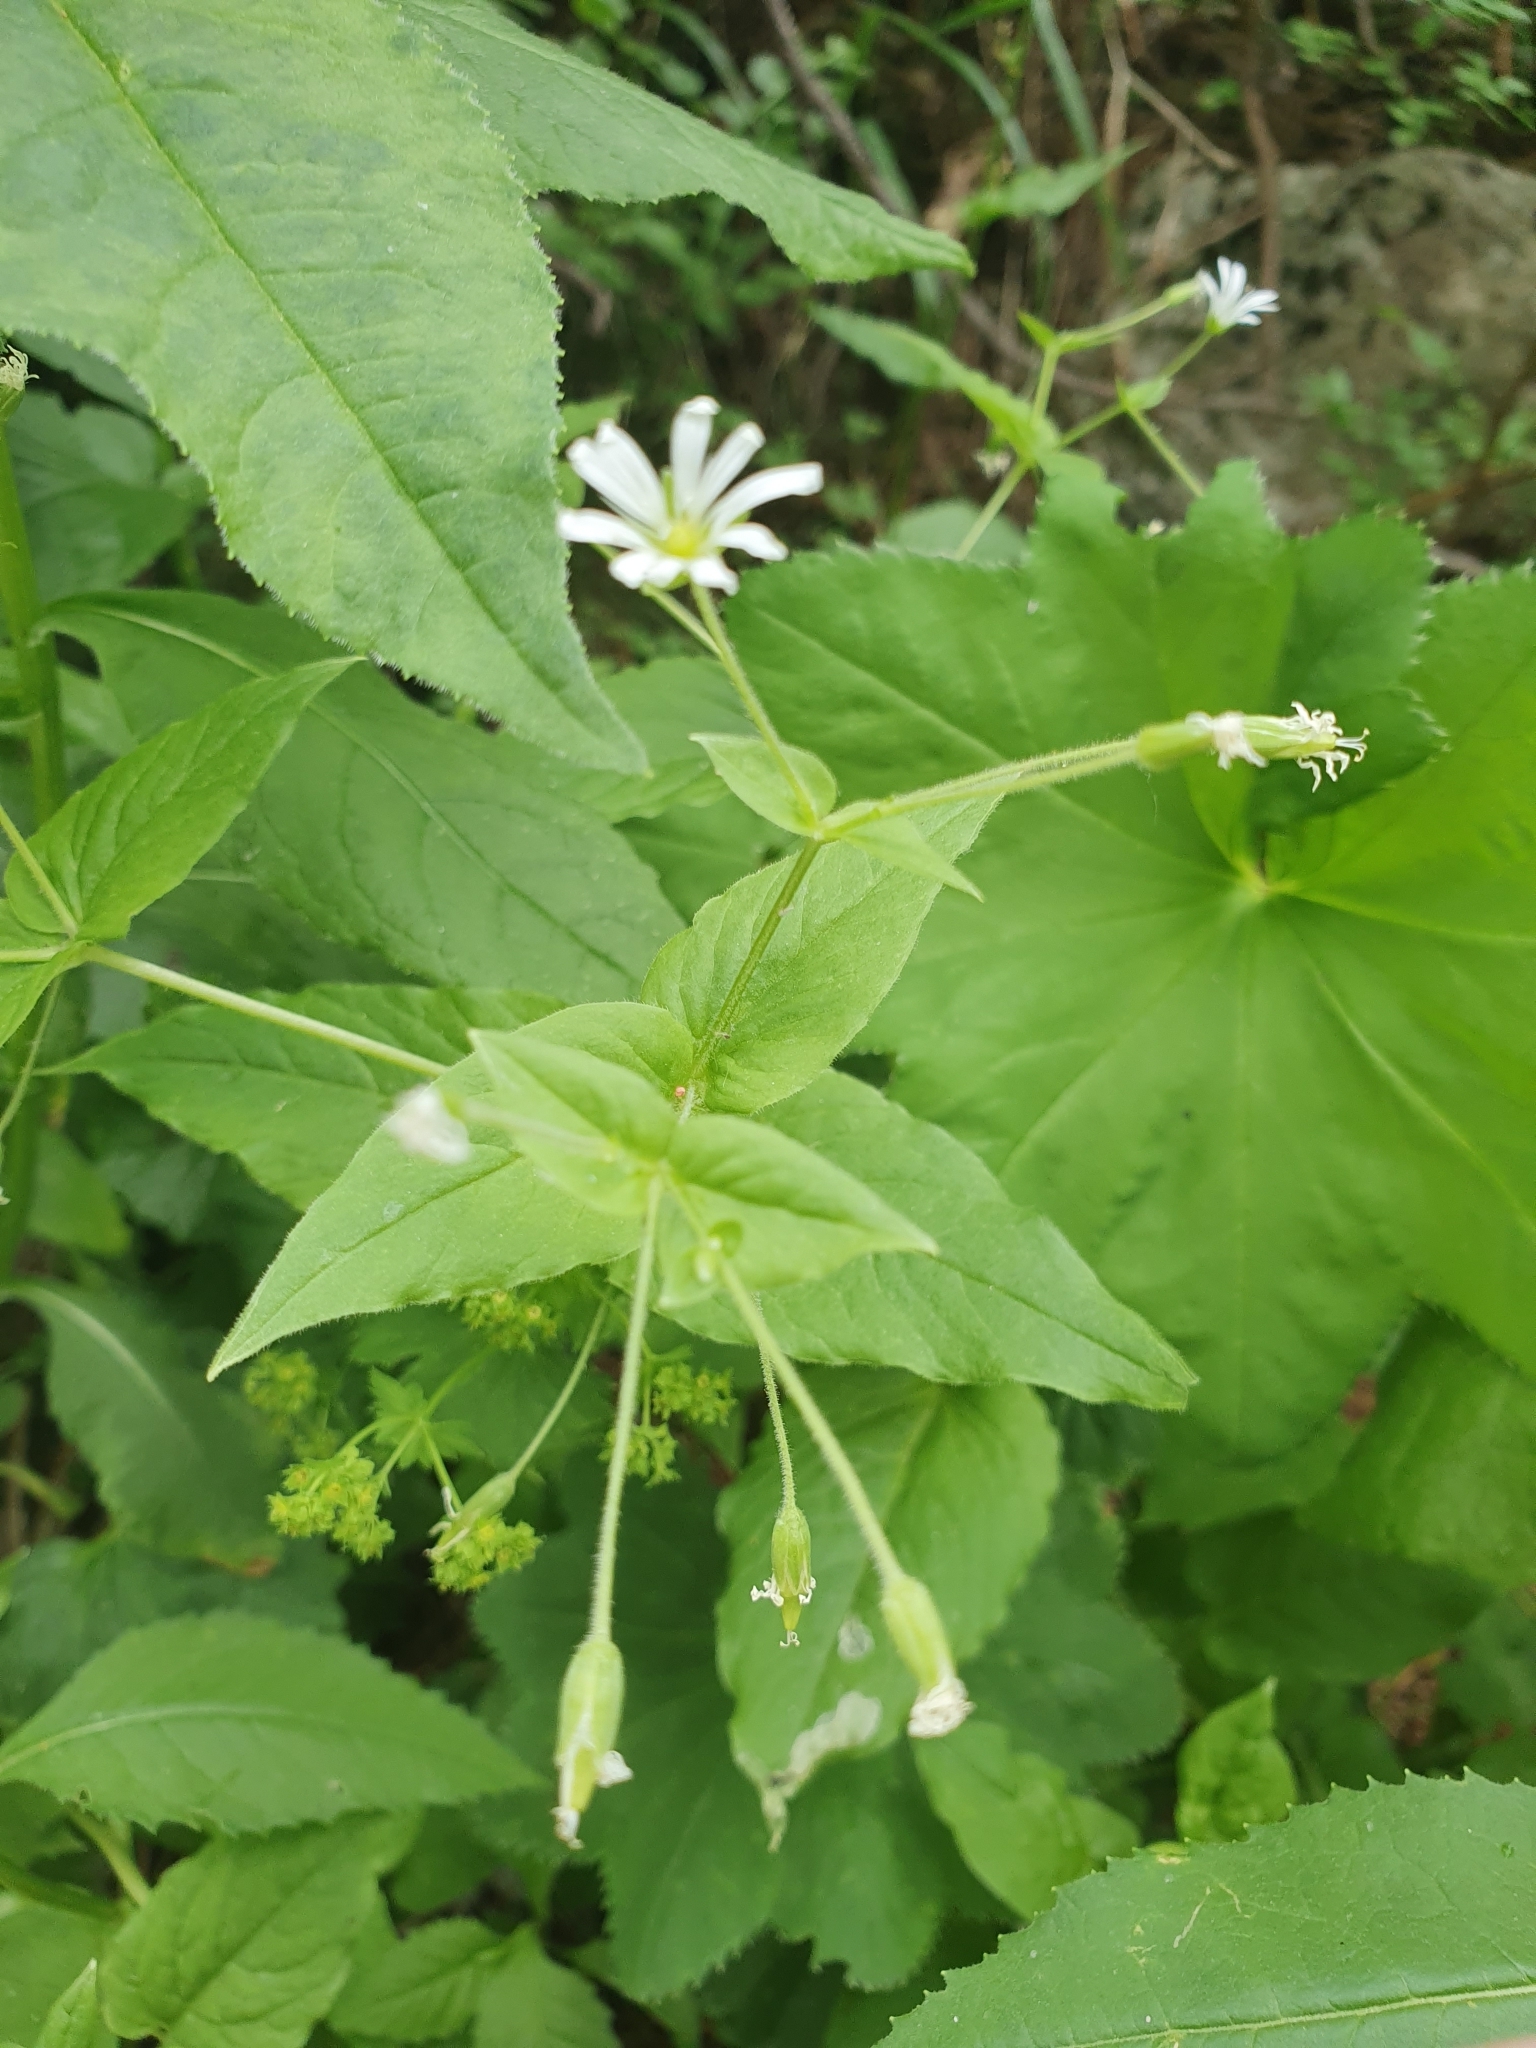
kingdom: Plantae
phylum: Tracheophyta
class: Magnoliopsida
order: Caryophyllales
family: Caryophyllaceae
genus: Stellaria
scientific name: Stellaria nemorum
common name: Wood stitchwort
